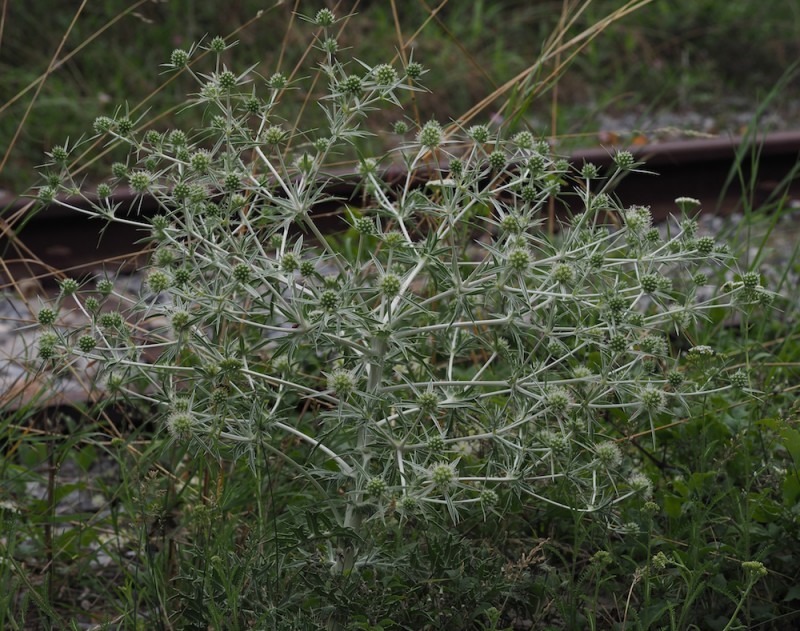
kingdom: Plantae
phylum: Tracheophyta
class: Magnoliopsida
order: Apiales
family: Apiaceae
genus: Eryngium
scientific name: Eryngium campestre
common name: Field eryngo
